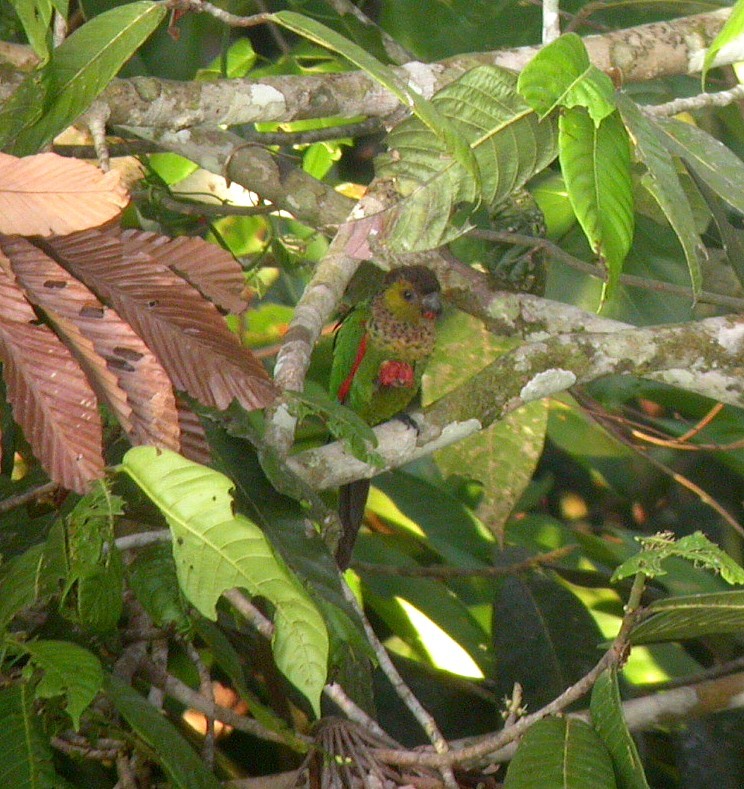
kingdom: Animalia
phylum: Chordata
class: Aves
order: Psittaciformes
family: Psittacidae
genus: Pyrrhura
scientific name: Pyrrhura rupicola
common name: Black-capped parakeet
